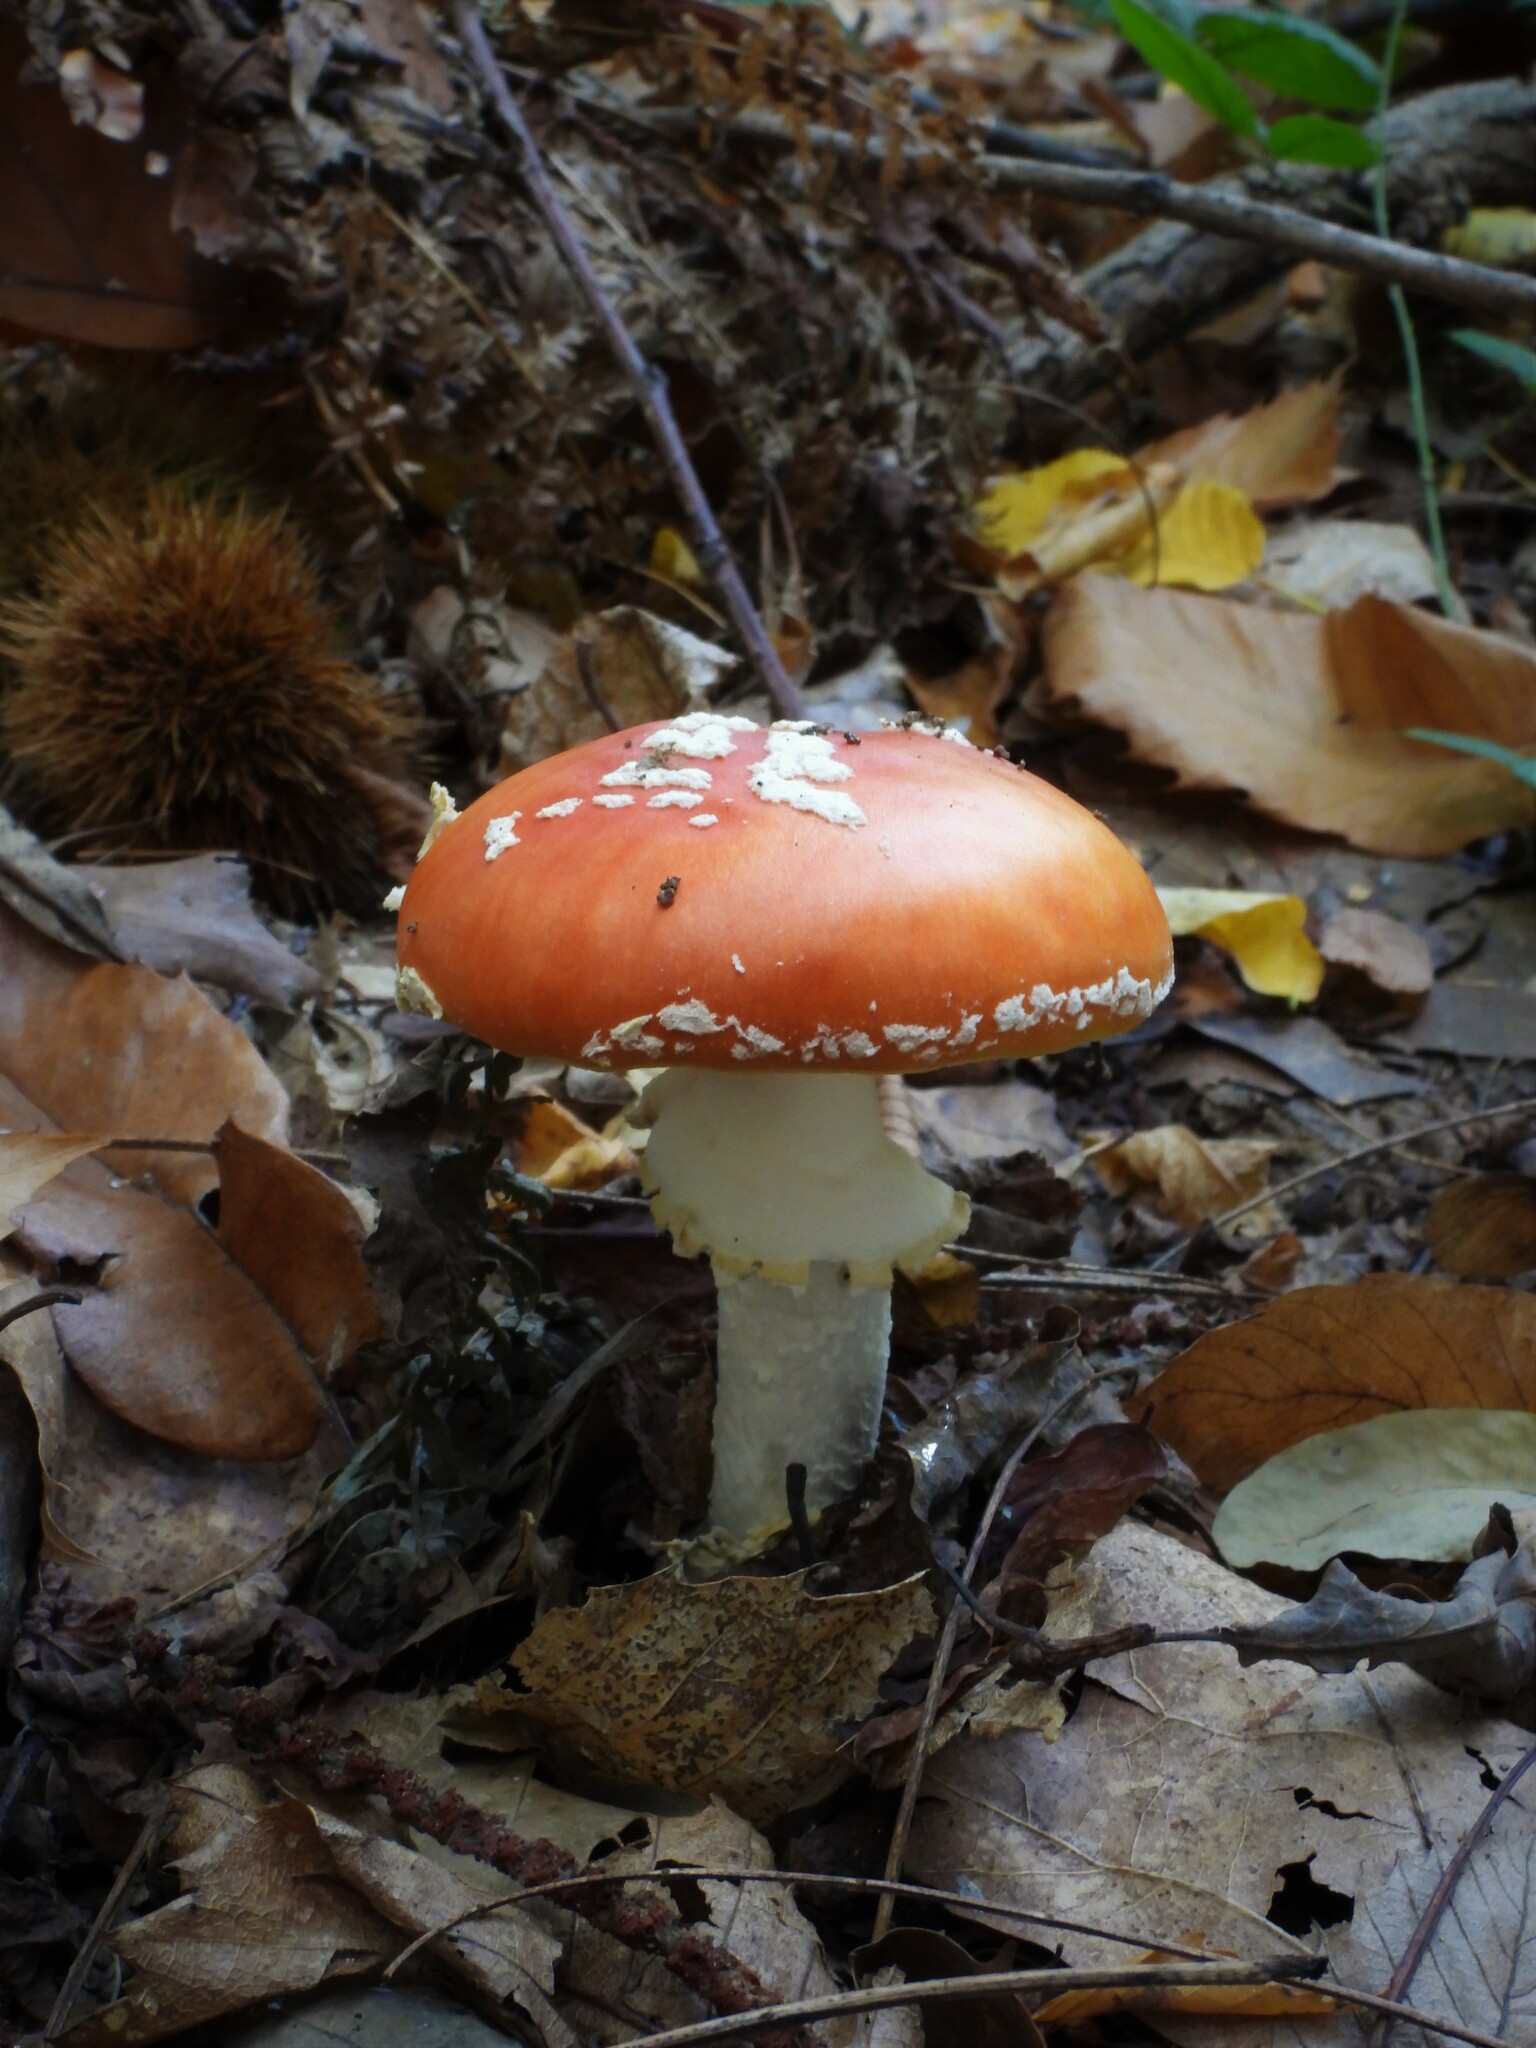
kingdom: Fungi
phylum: Basidiomycota
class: Agaricomycetes
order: Agaricales
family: Amanitaceae
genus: Amanita
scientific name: Amanita muscaria
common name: Fly agaric
